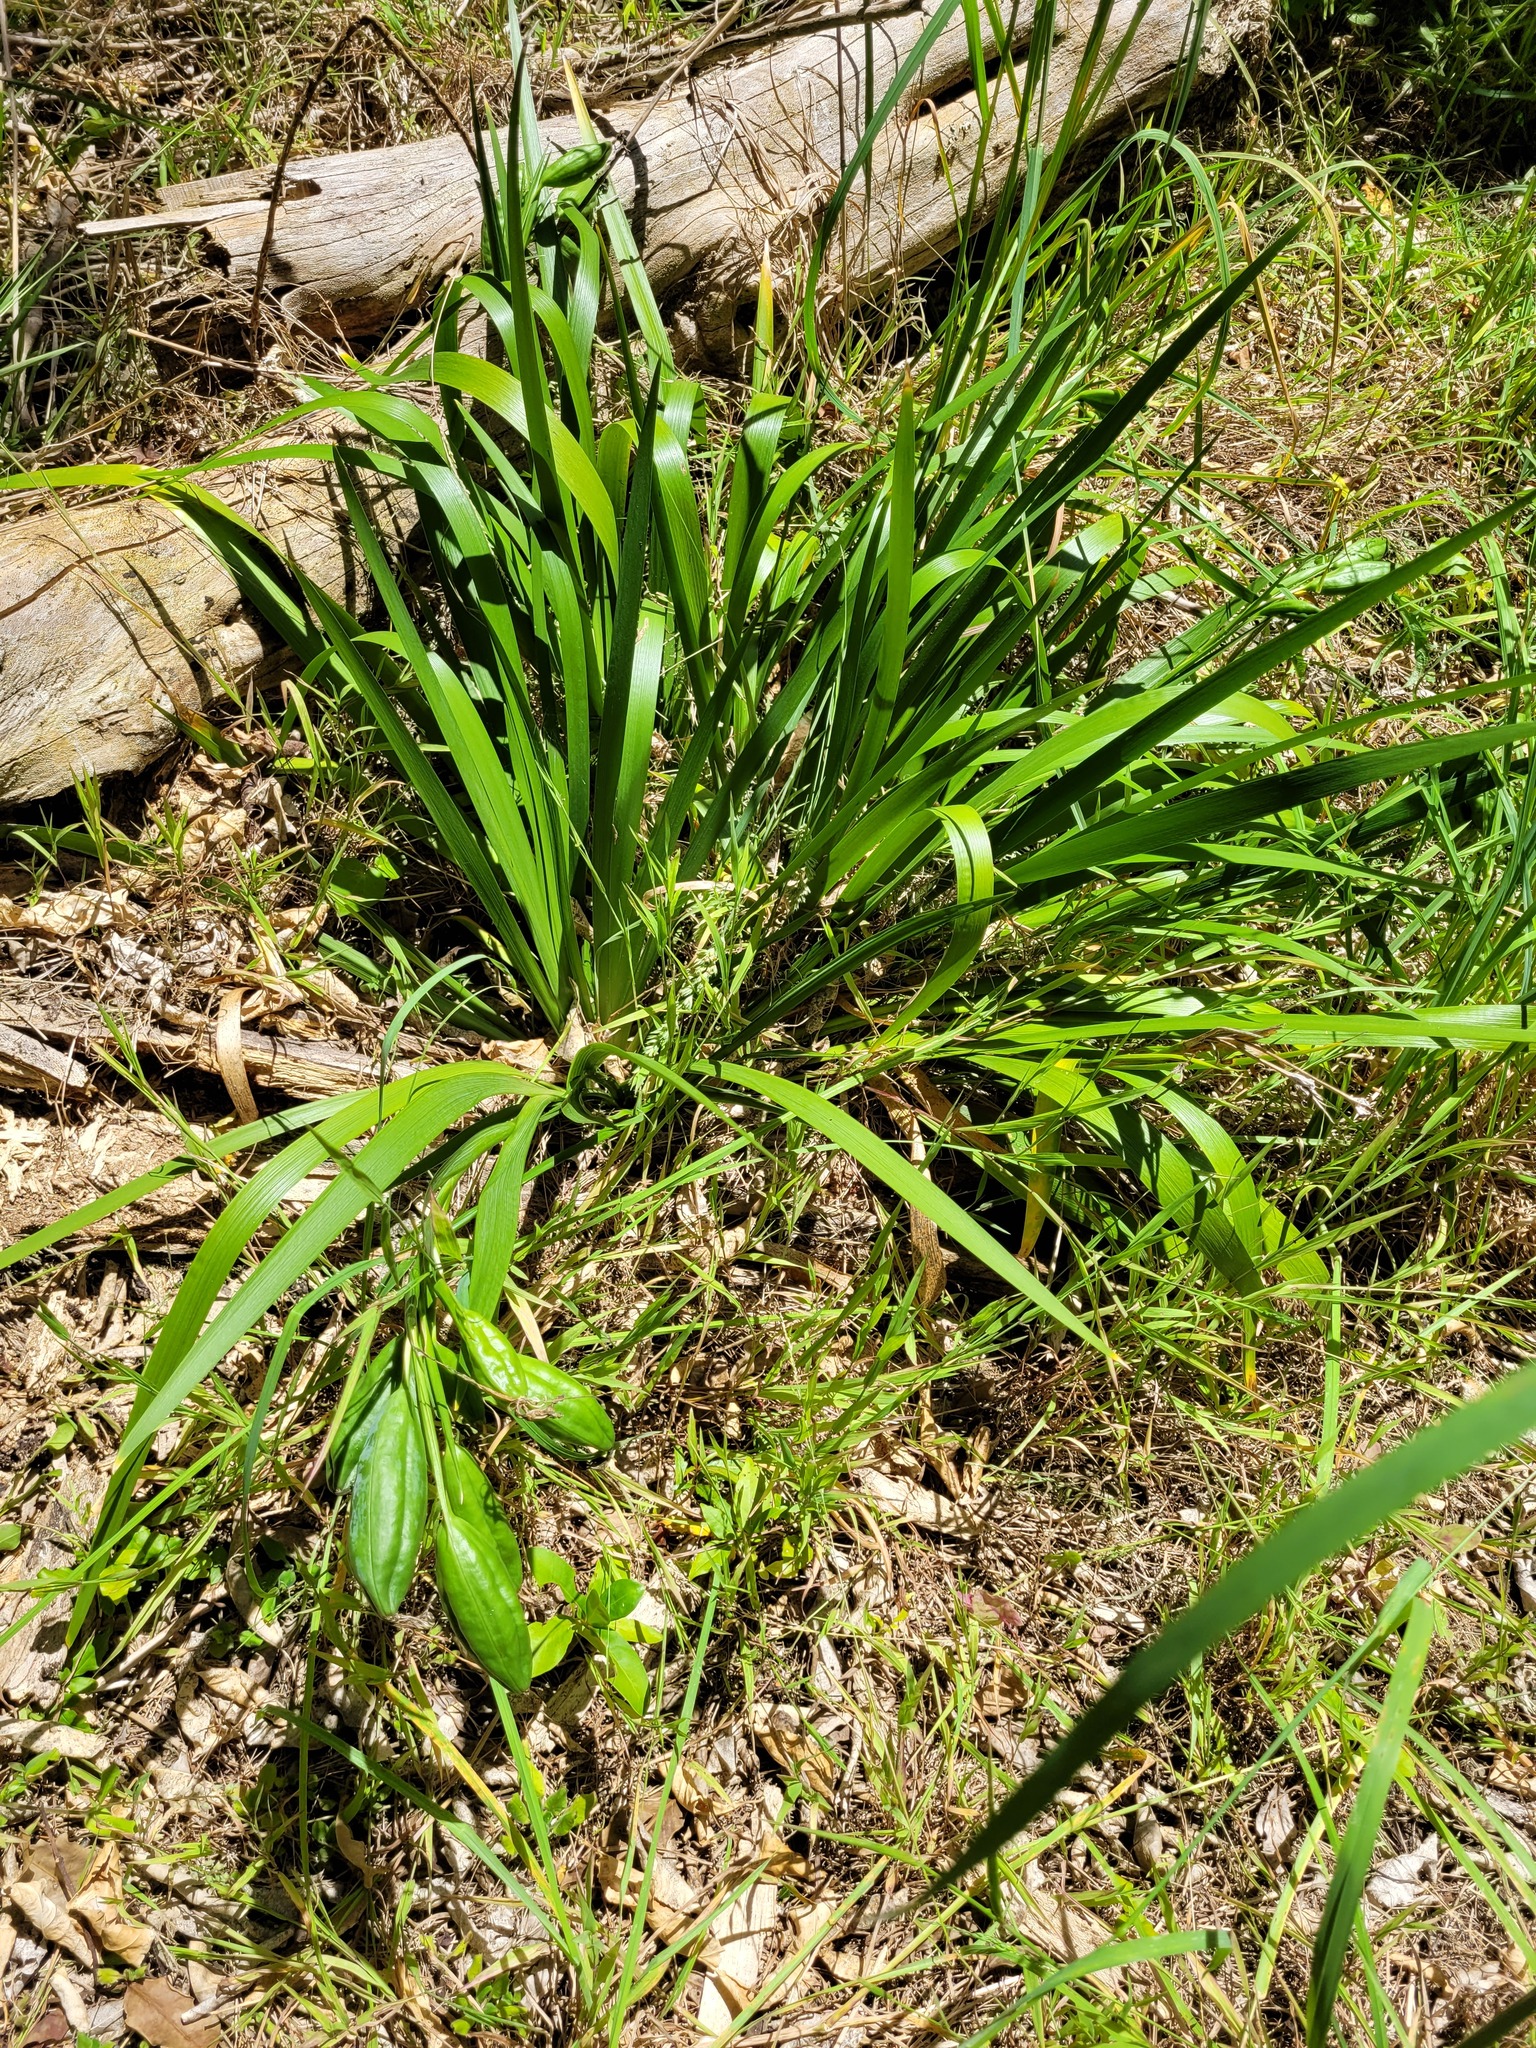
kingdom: Plantae
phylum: Tracheophyta
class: Liliopsida
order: Asparagales
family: Iridaceae
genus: Iris
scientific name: Iris foetidissima
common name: Stinking iris
